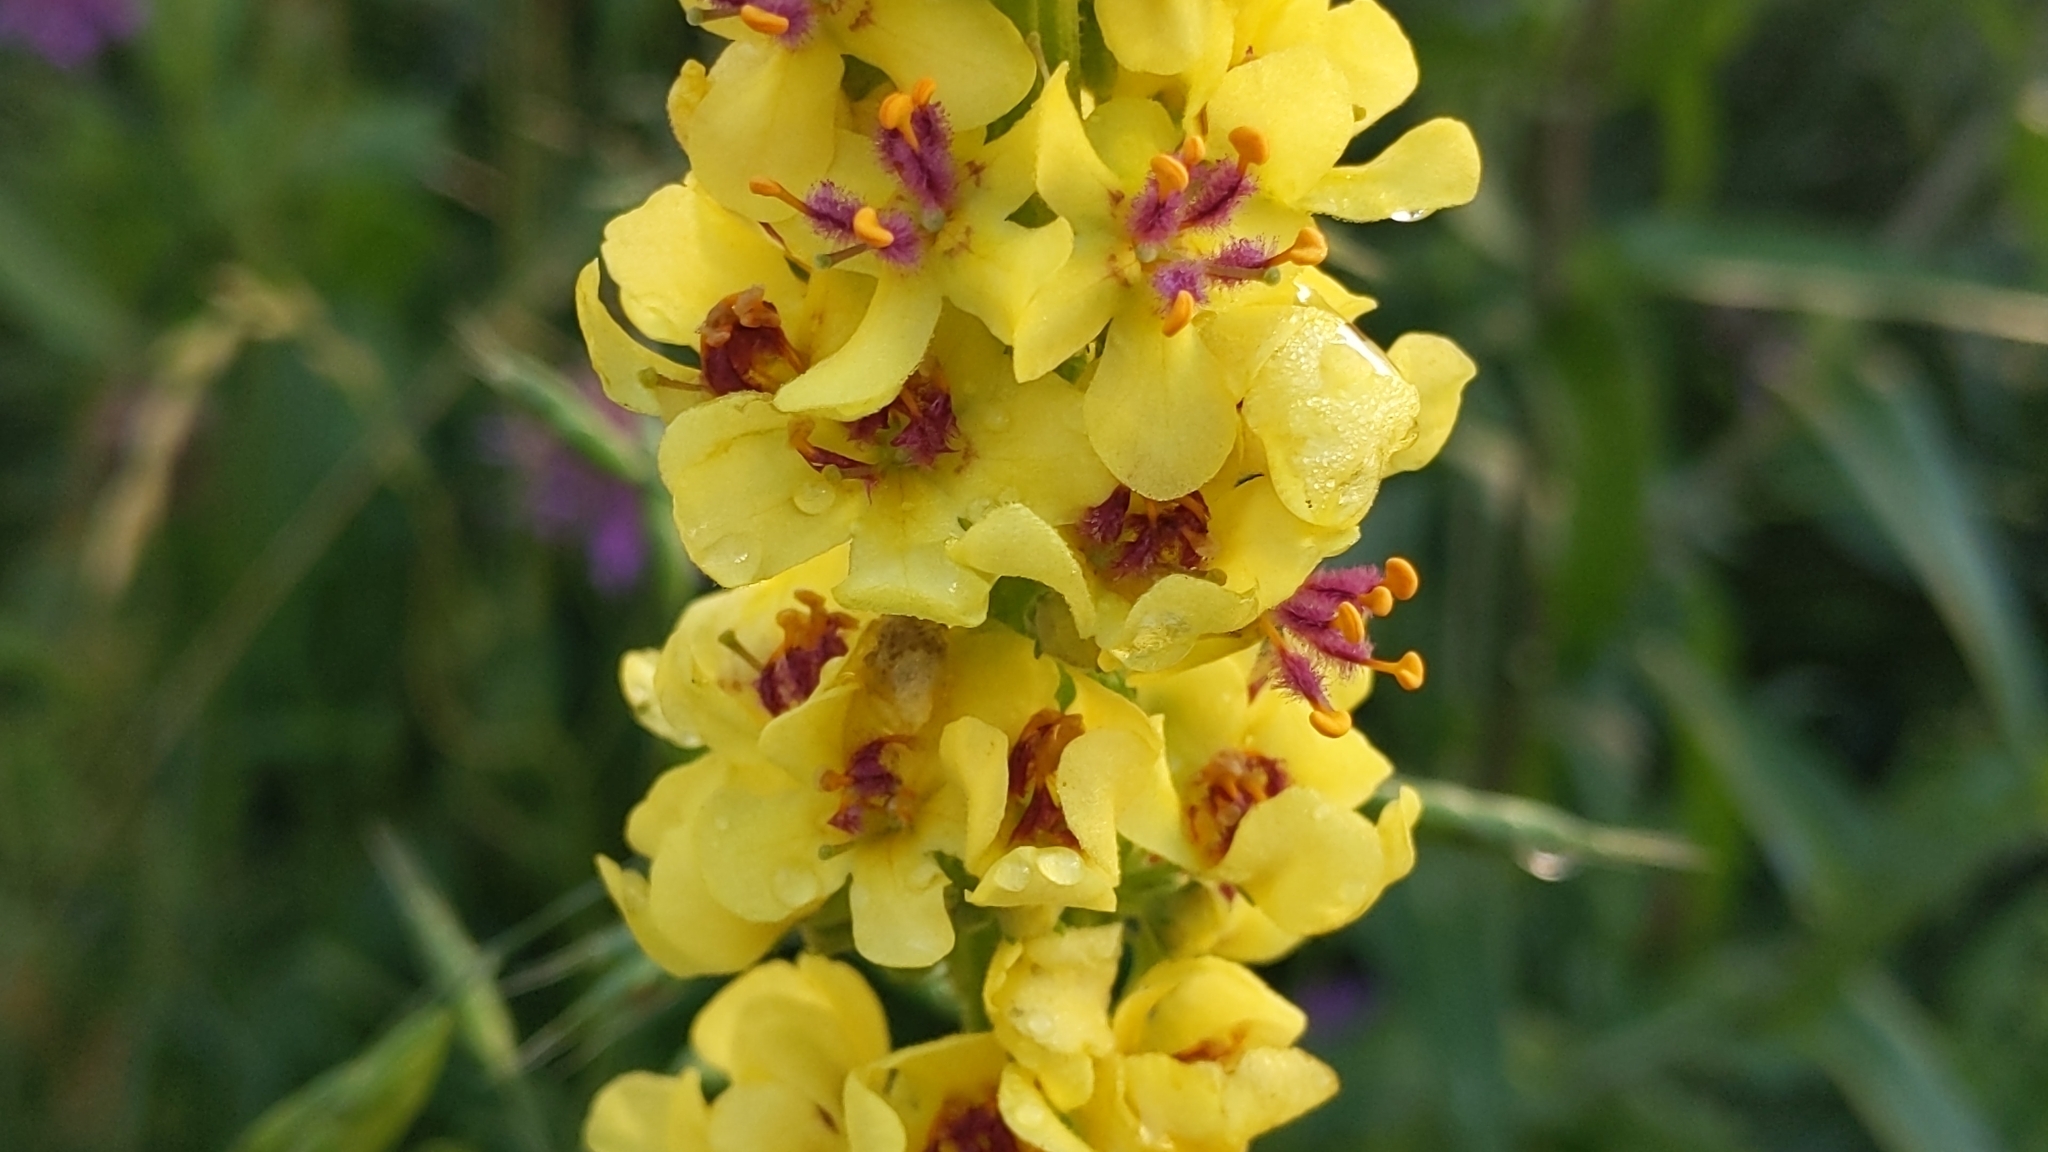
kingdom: Plantae
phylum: Tracheophyta
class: Magnoliopsida
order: Lamiales
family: Scrophulariaceae
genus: Verbascum
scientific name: Verbascum nigrum
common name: Dark mullein
